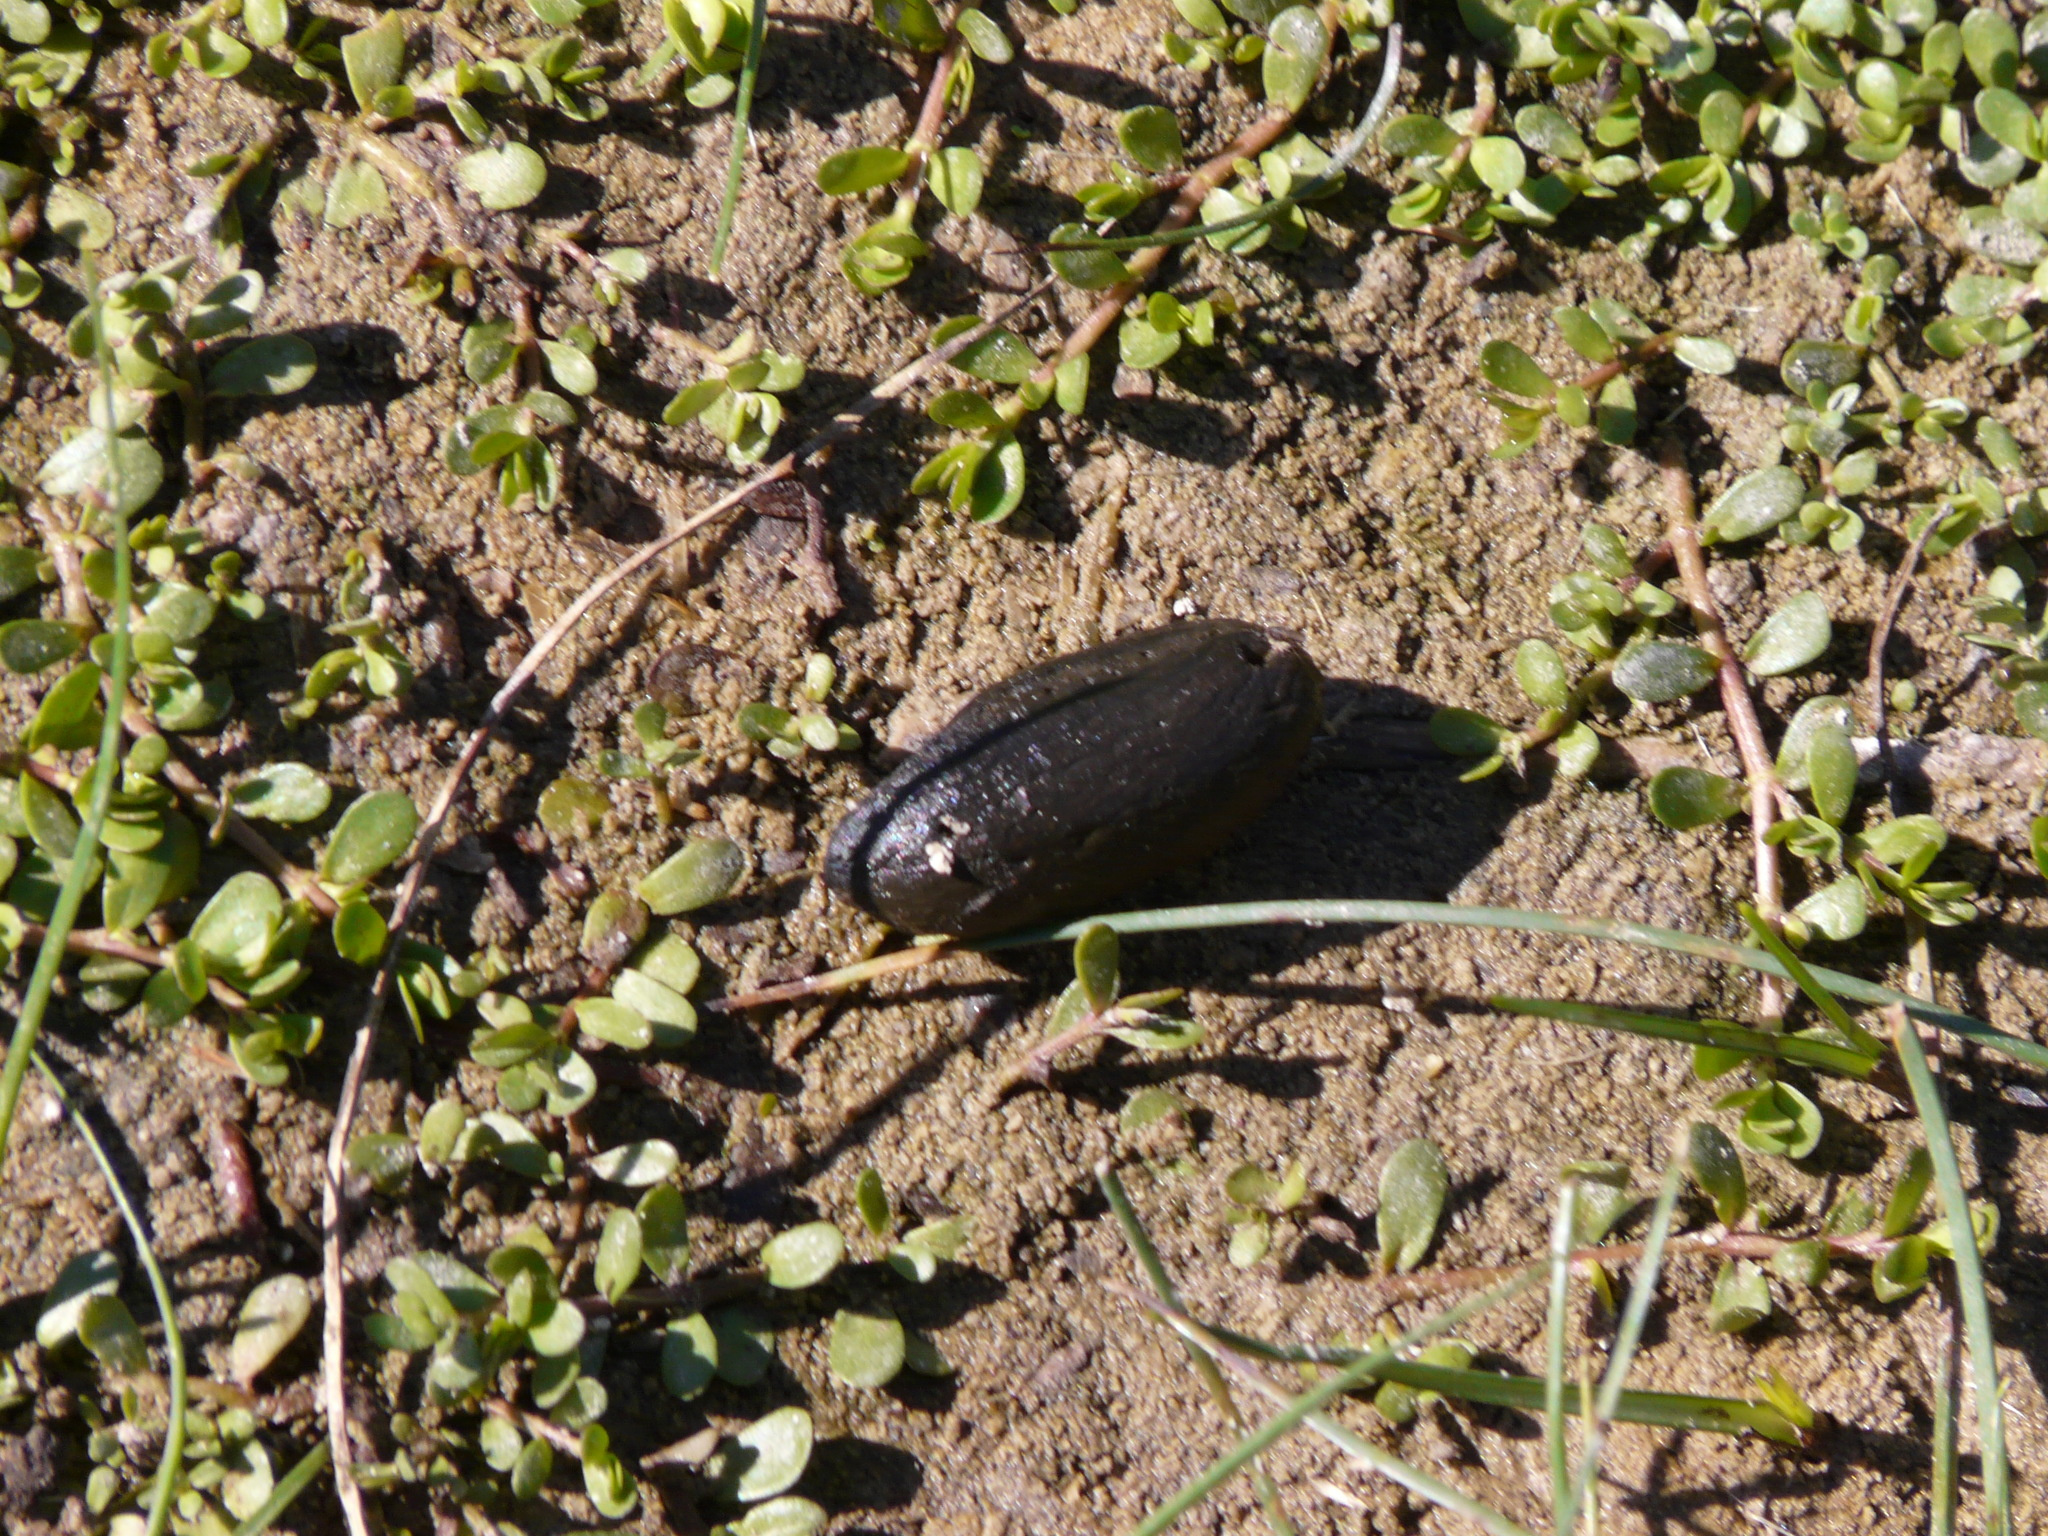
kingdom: Animalia
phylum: Chordata
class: Mammalia
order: Rodentia
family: Myocastoridae
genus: Myocastor
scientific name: Myocastor coypus
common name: Coypu
